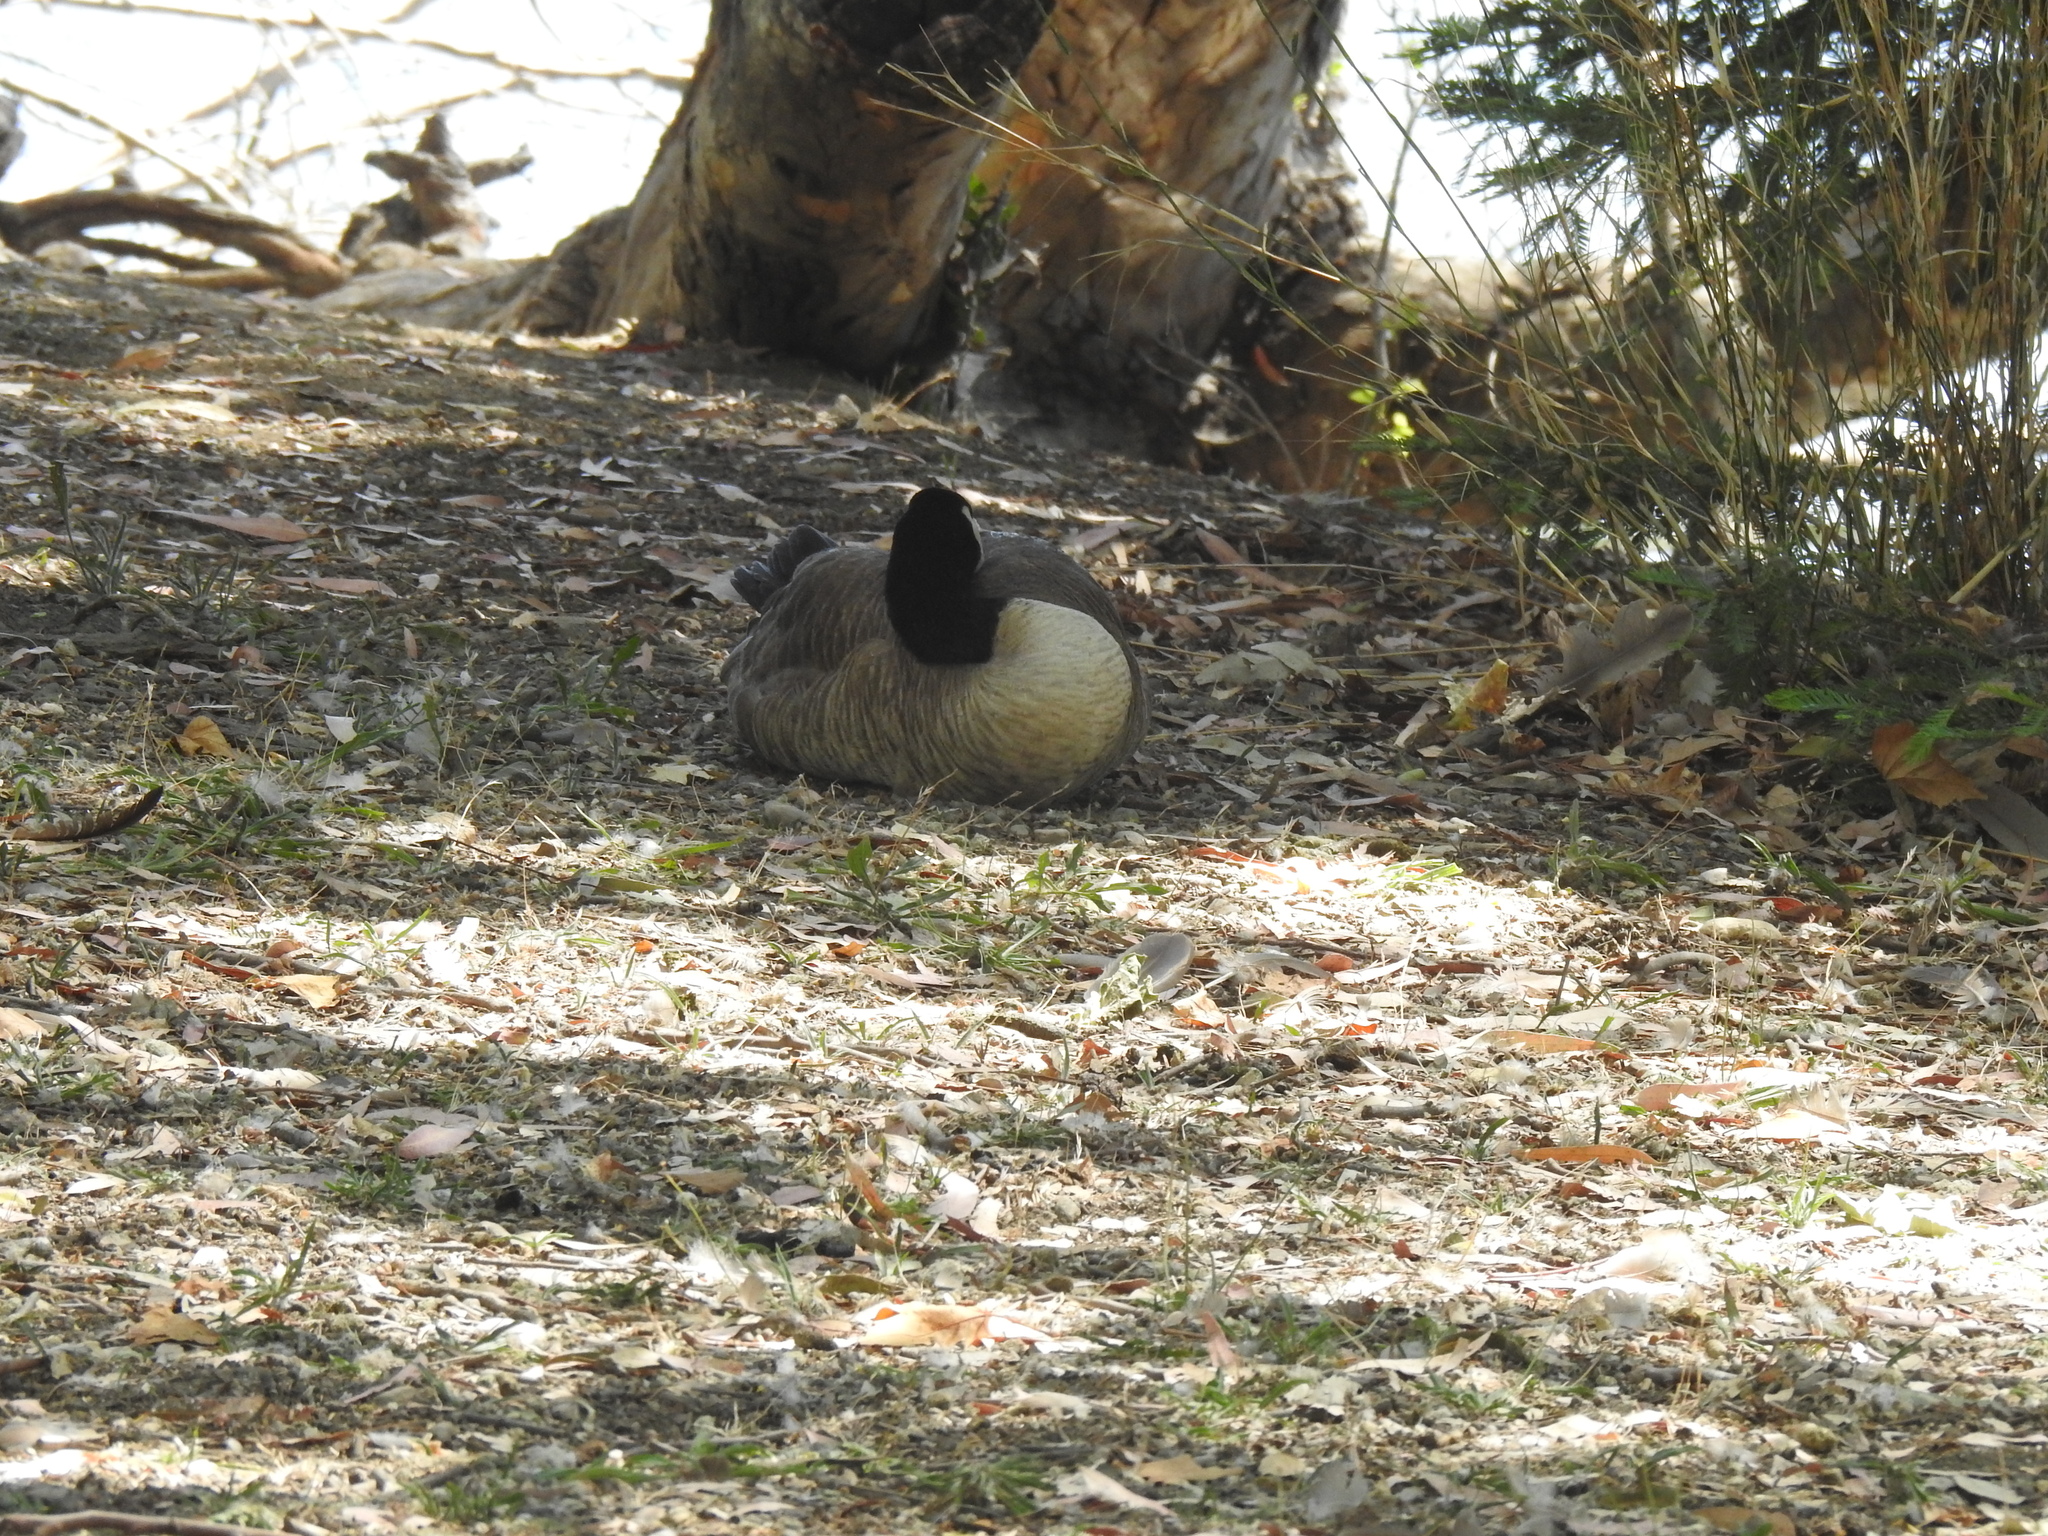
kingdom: Animalia
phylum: Chordata
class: Aves
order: Anseriformes
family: Anatidae
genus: Branta
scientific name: Branta canadensis
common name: Canada goose
